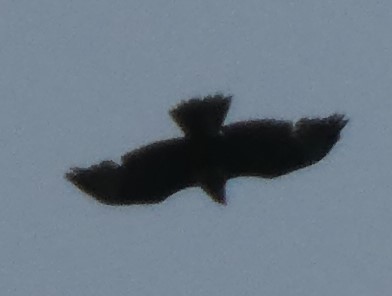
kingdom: Animalia
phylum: Chordata
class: Aves
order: Accipitriformes
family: Accipitridae
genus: Buteo
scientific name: Buteo buteo
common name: Common buzzard
